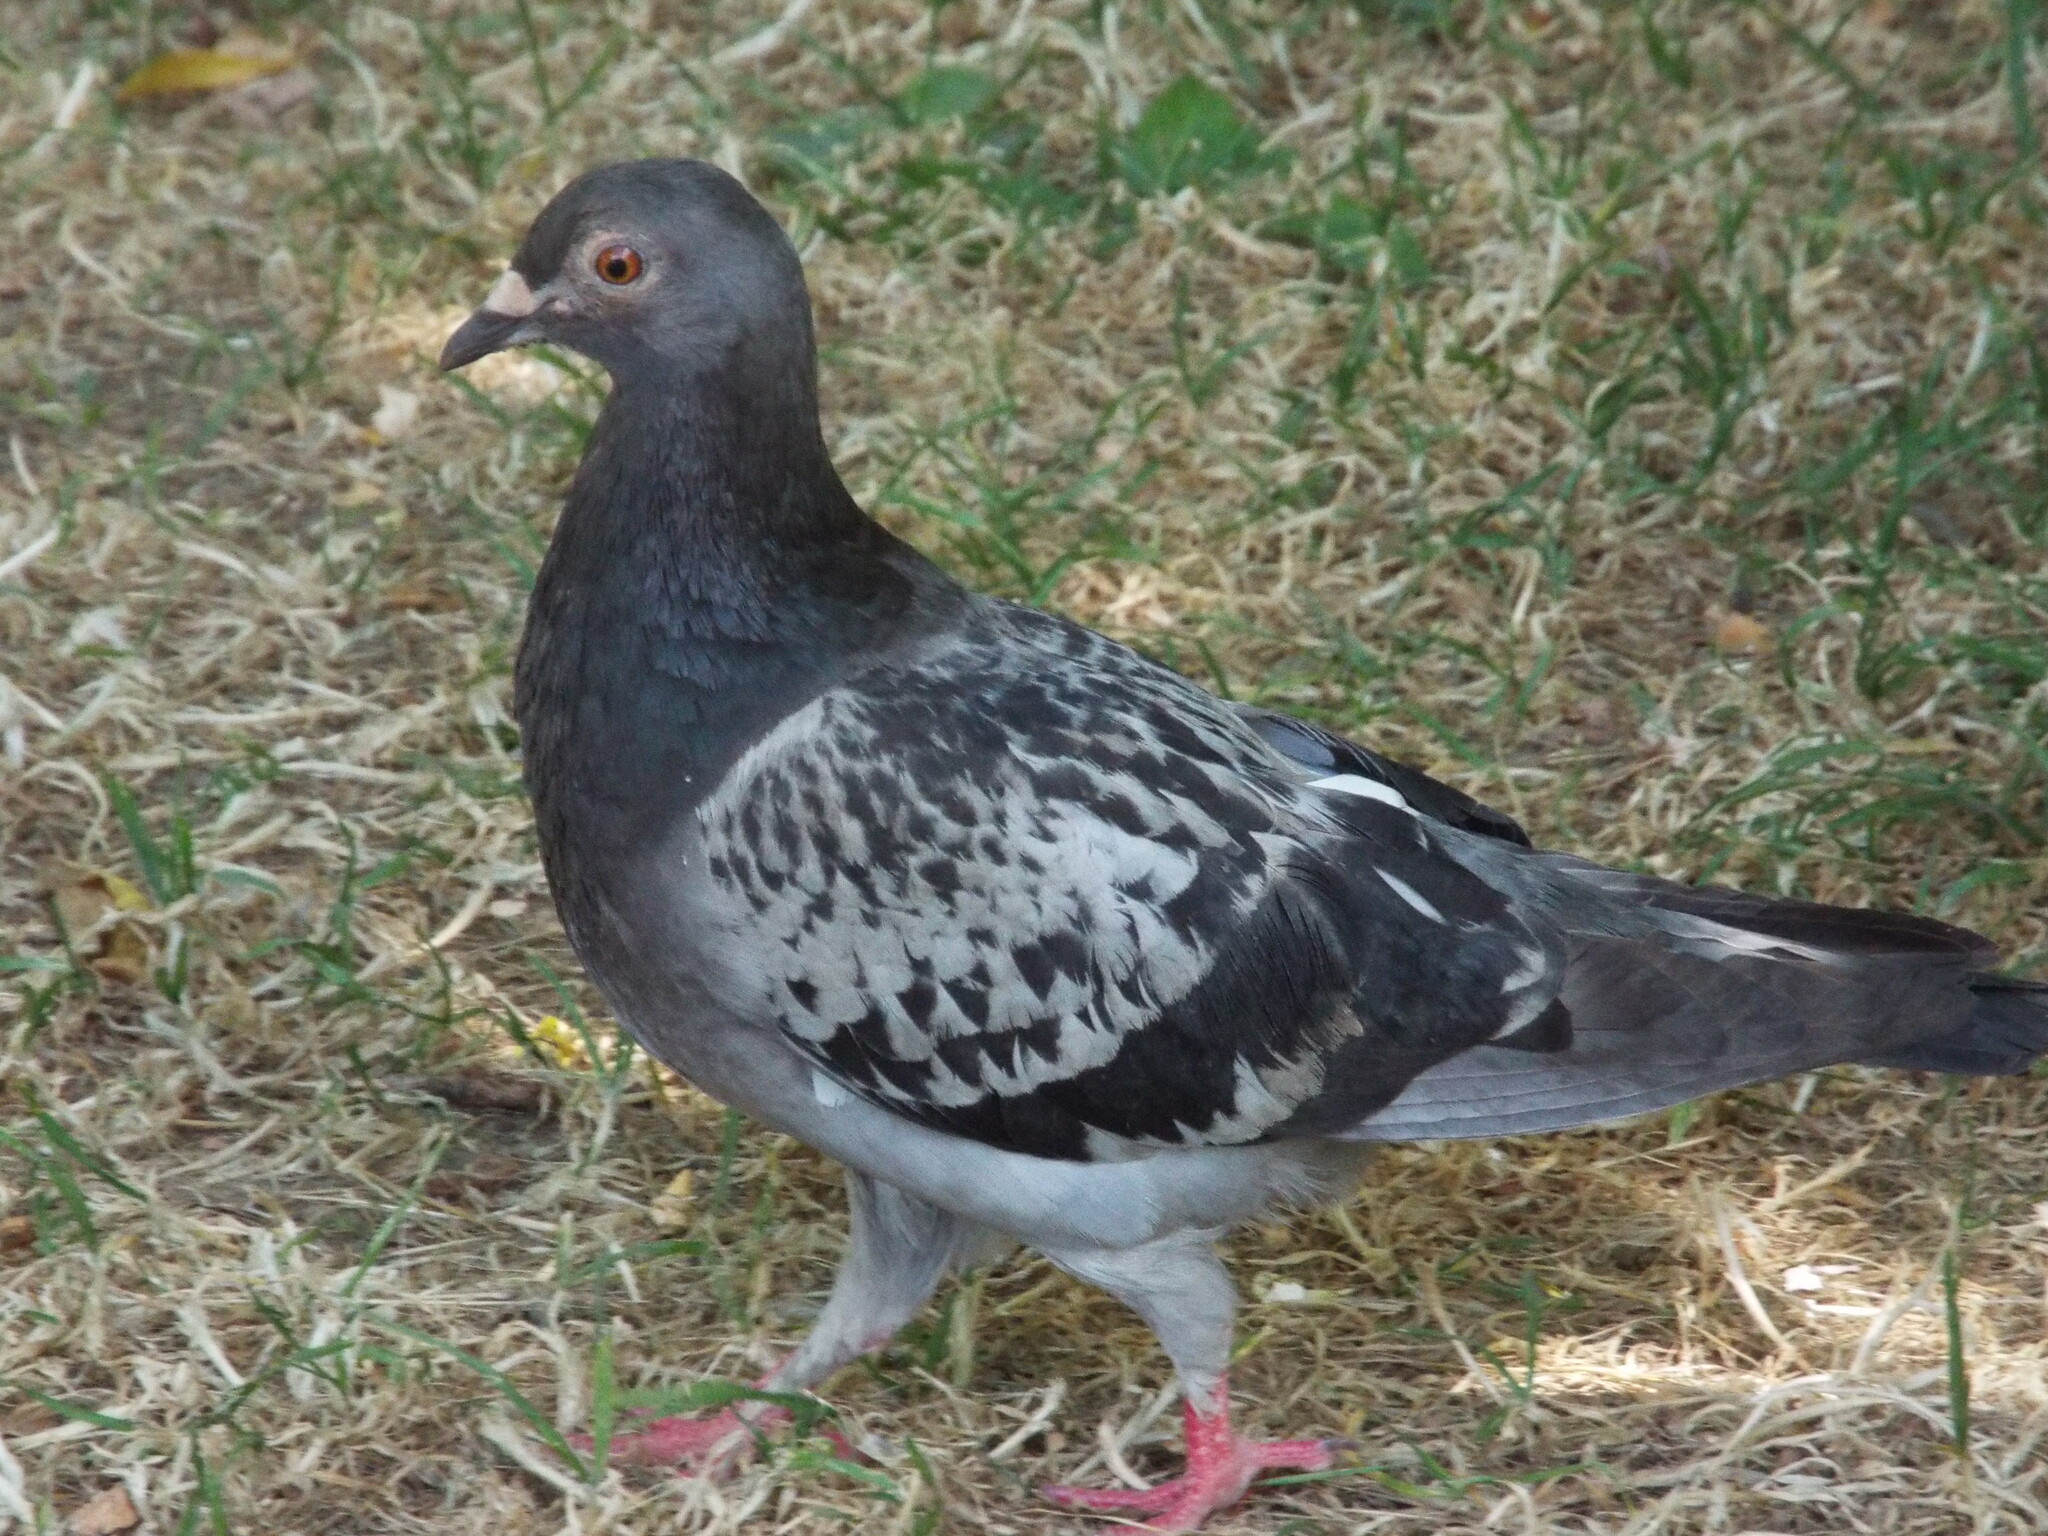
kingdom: Animalia
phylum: Chordata
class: Aves
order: Columbiformes
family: Columbidae
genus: Columba
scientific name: Columba livia
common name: Rock pigeon
